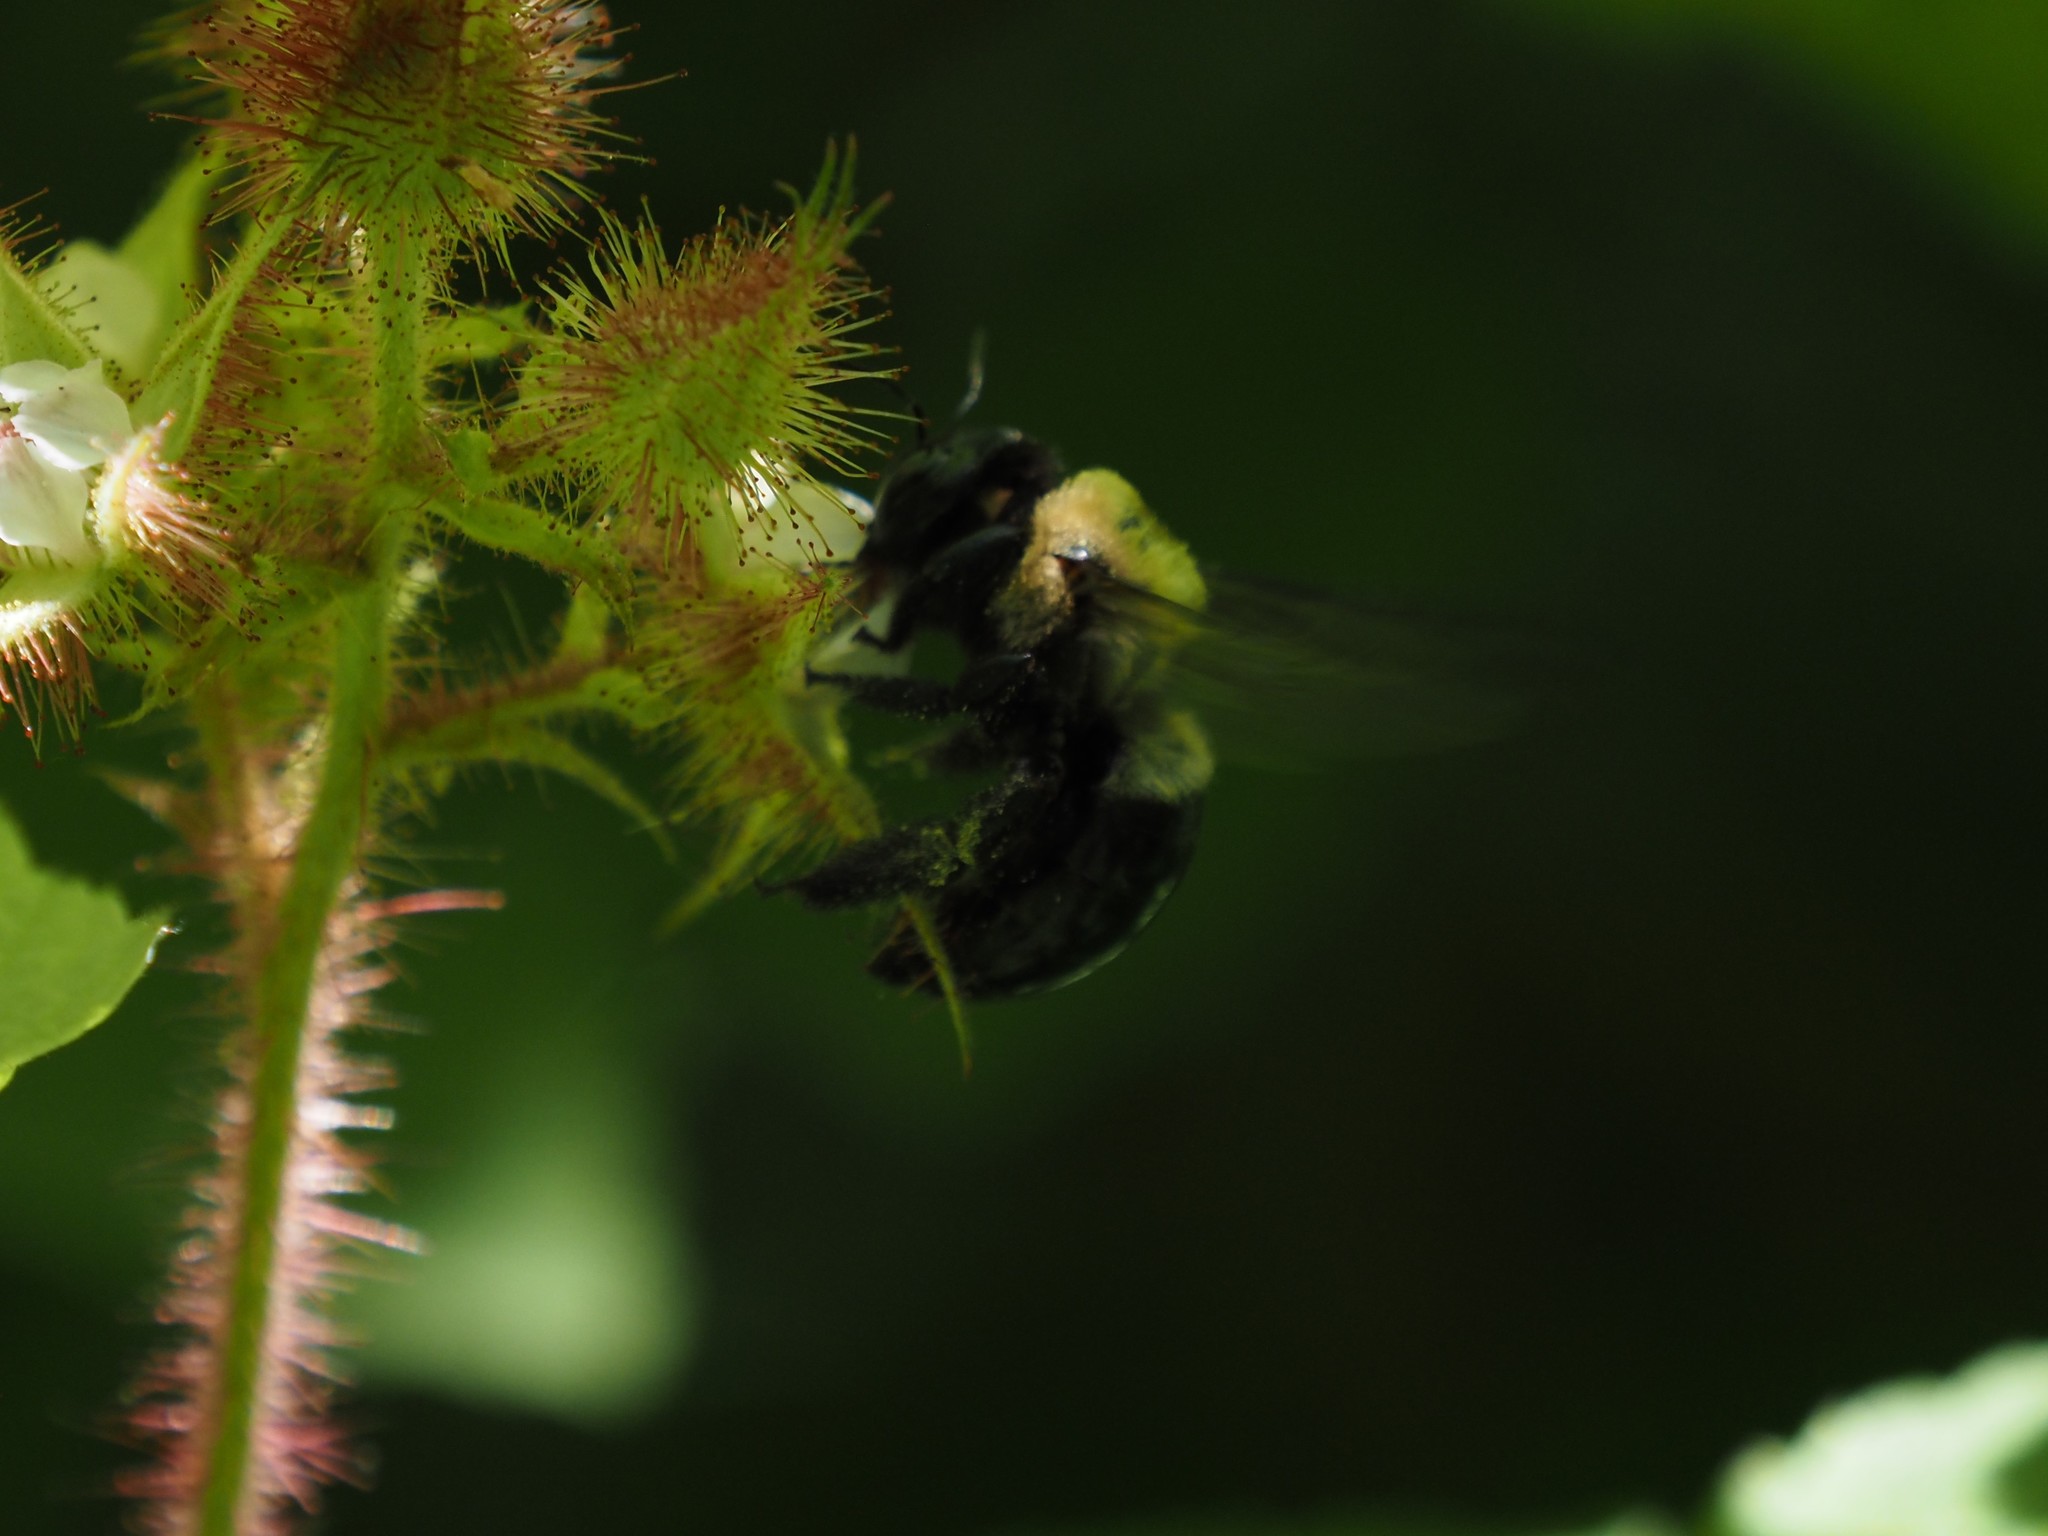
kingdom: Animalia
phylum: Arthropoda
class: Insecta
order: Hymenoptera
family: Apidae
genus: Xylocopa
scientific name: Xylocopa virginica
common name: Carpenter bee
